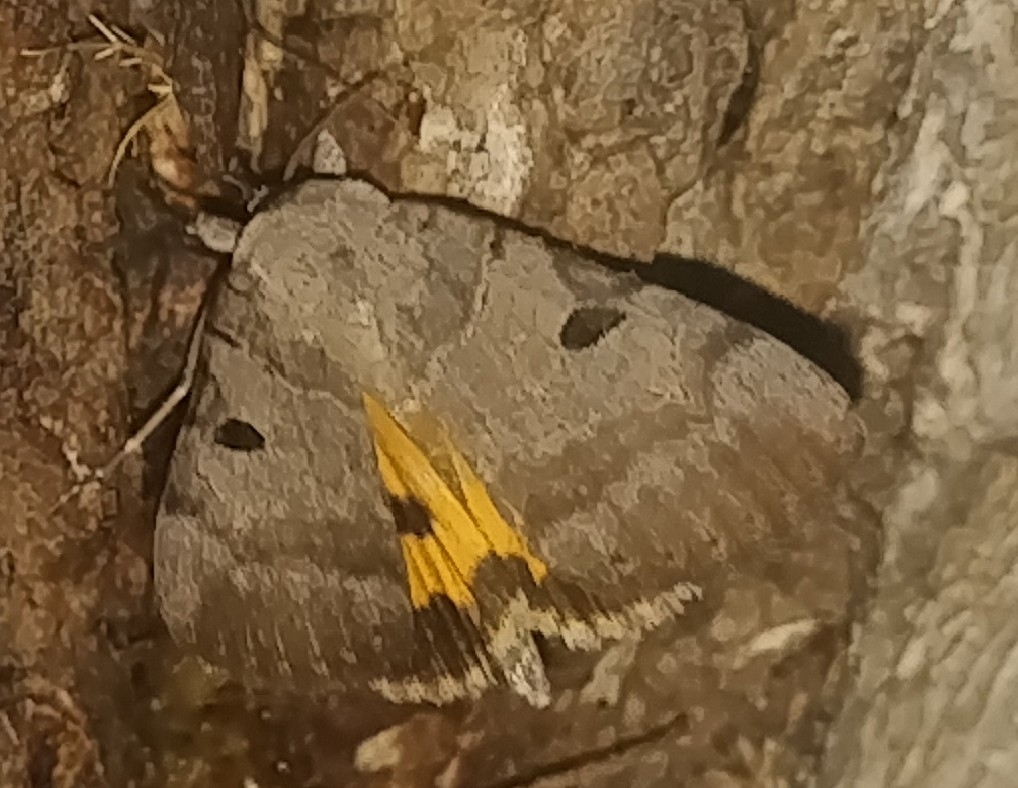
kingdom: Animalia
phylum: Arthropoda
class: Insecta
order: Lepidoptera
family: Erebidae
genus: Catocala
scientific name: Catocala nuptialis
